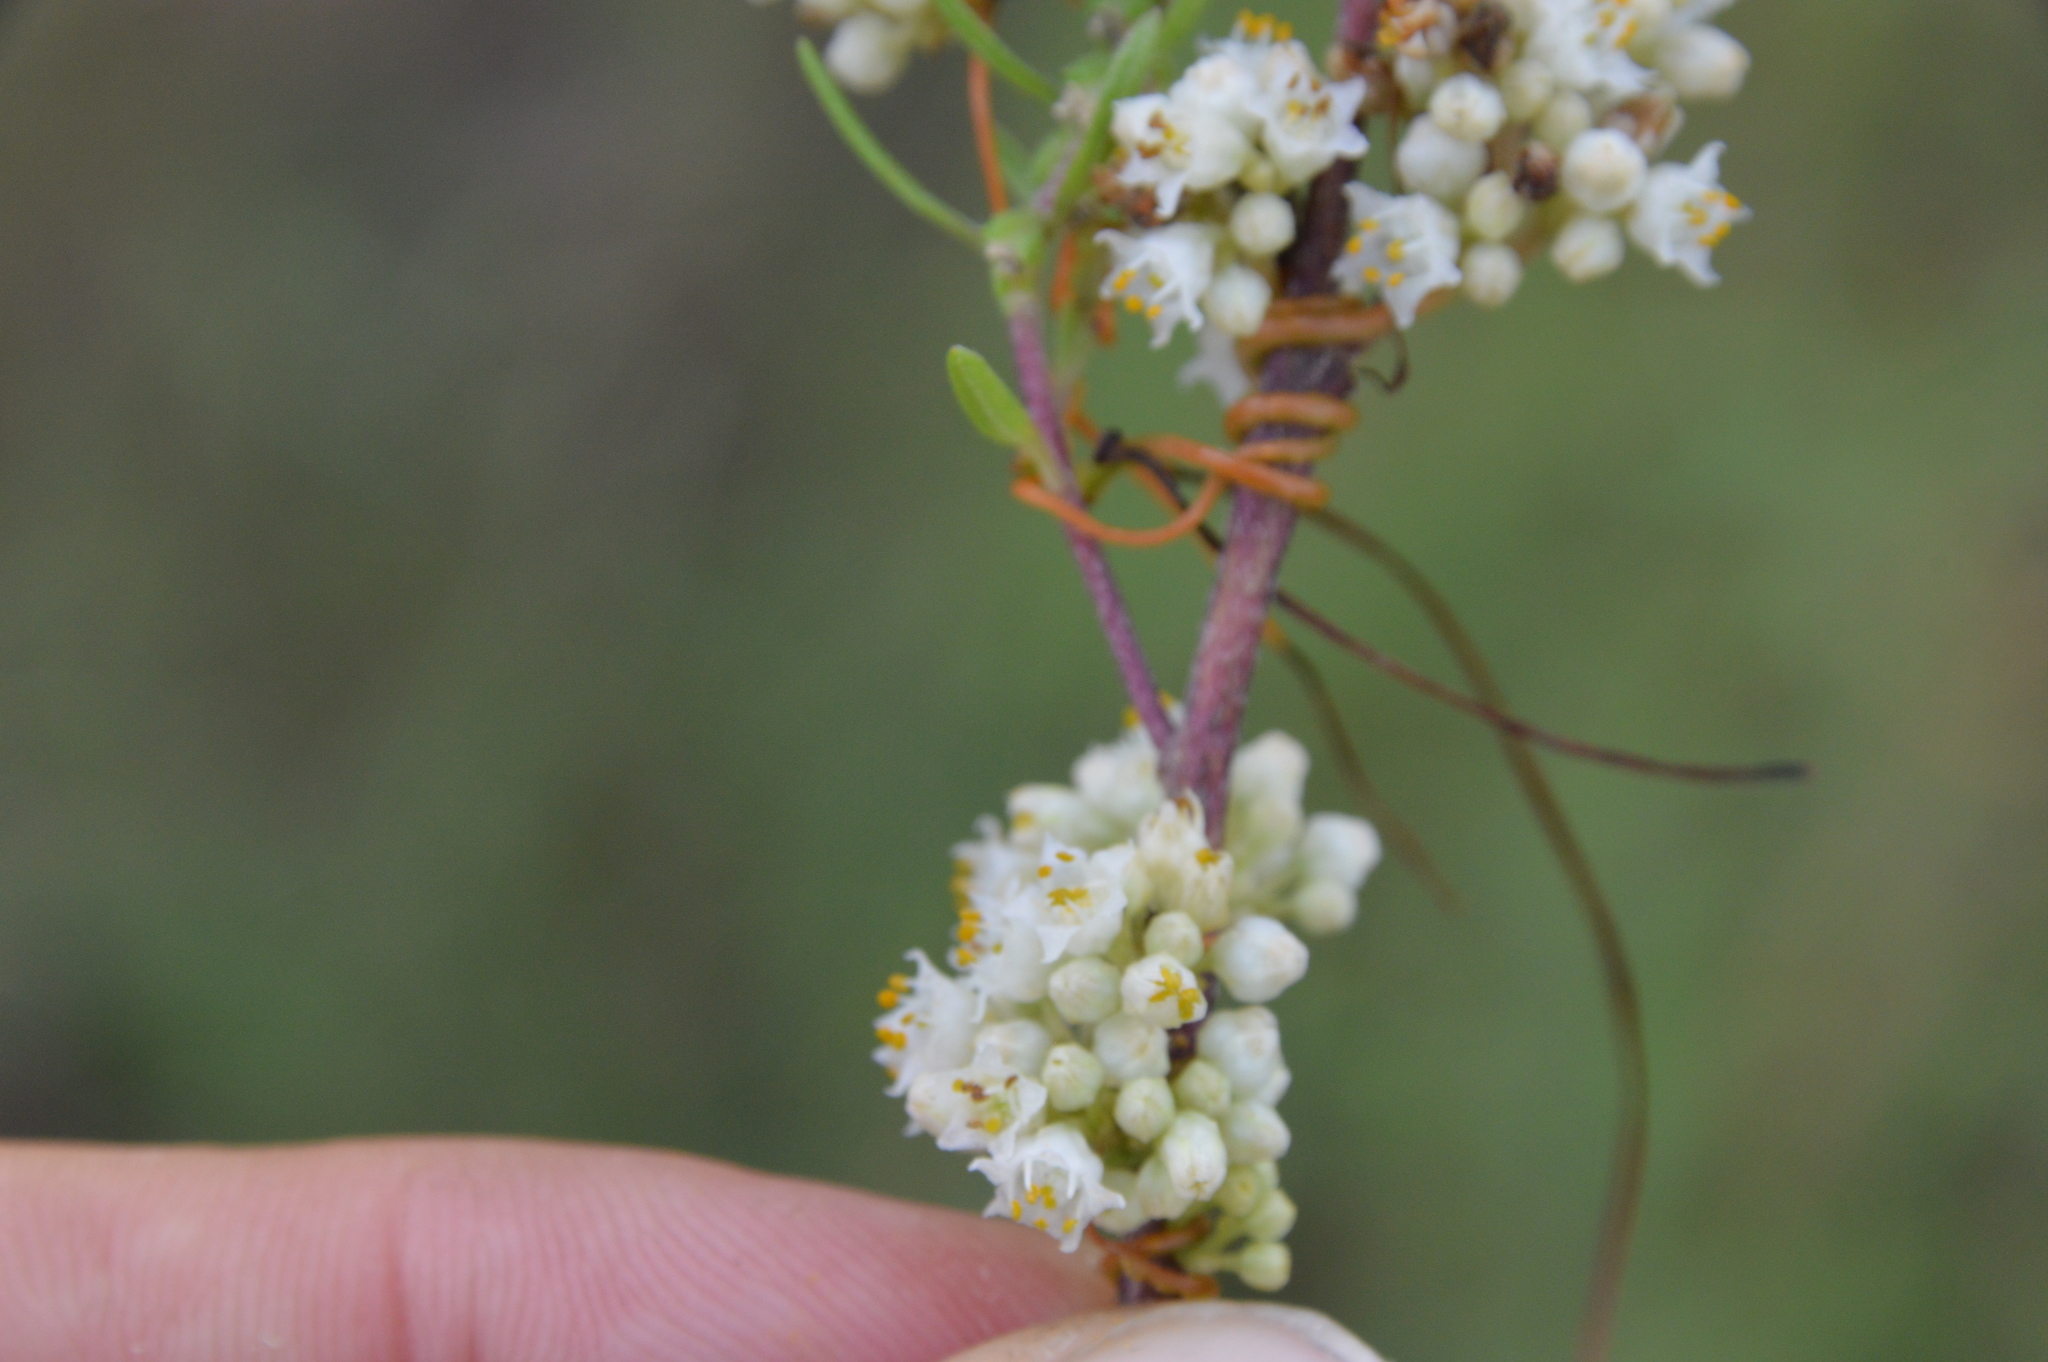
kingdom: Plantae
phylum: Tracheophyta
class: Magnoliopsida
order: Solanales
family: Convolvulaceae
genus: Cuscuta
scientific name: Cuscuta pentagona
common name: Fiveangled dodder
